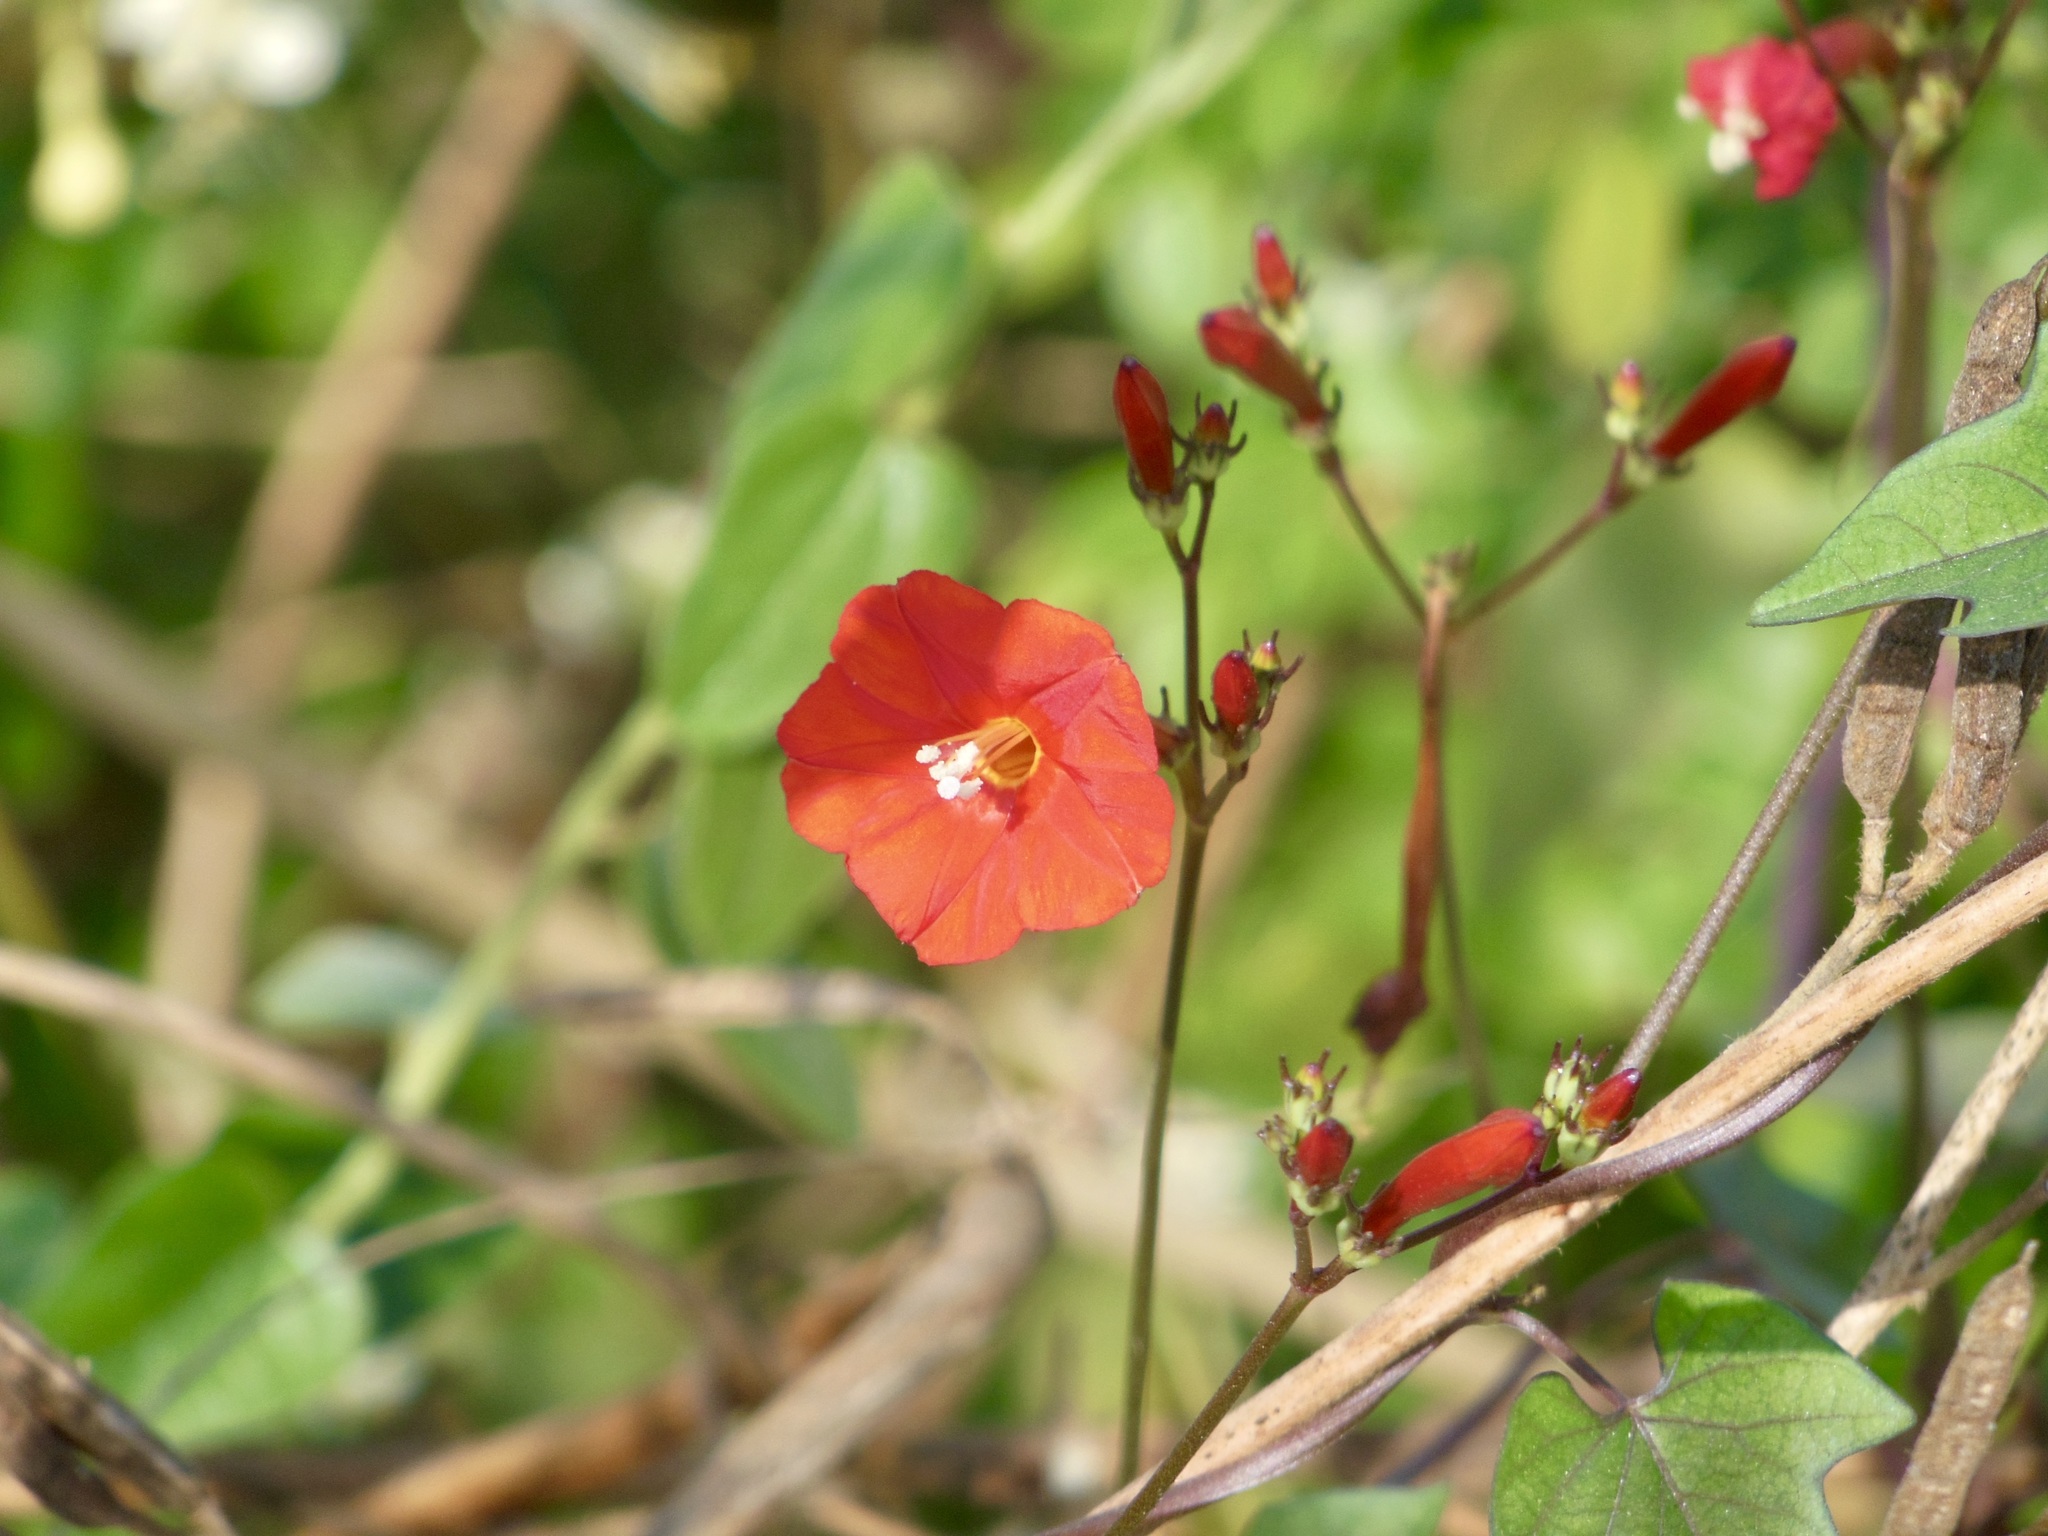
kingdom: Plantae
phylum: Tracheophyta
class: Magnoliopsida
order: Solanales
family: Convolvulaceae
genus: Ipomoea
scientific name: Ipomoea hederifolia
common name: Ivy-leaf morning-glory
